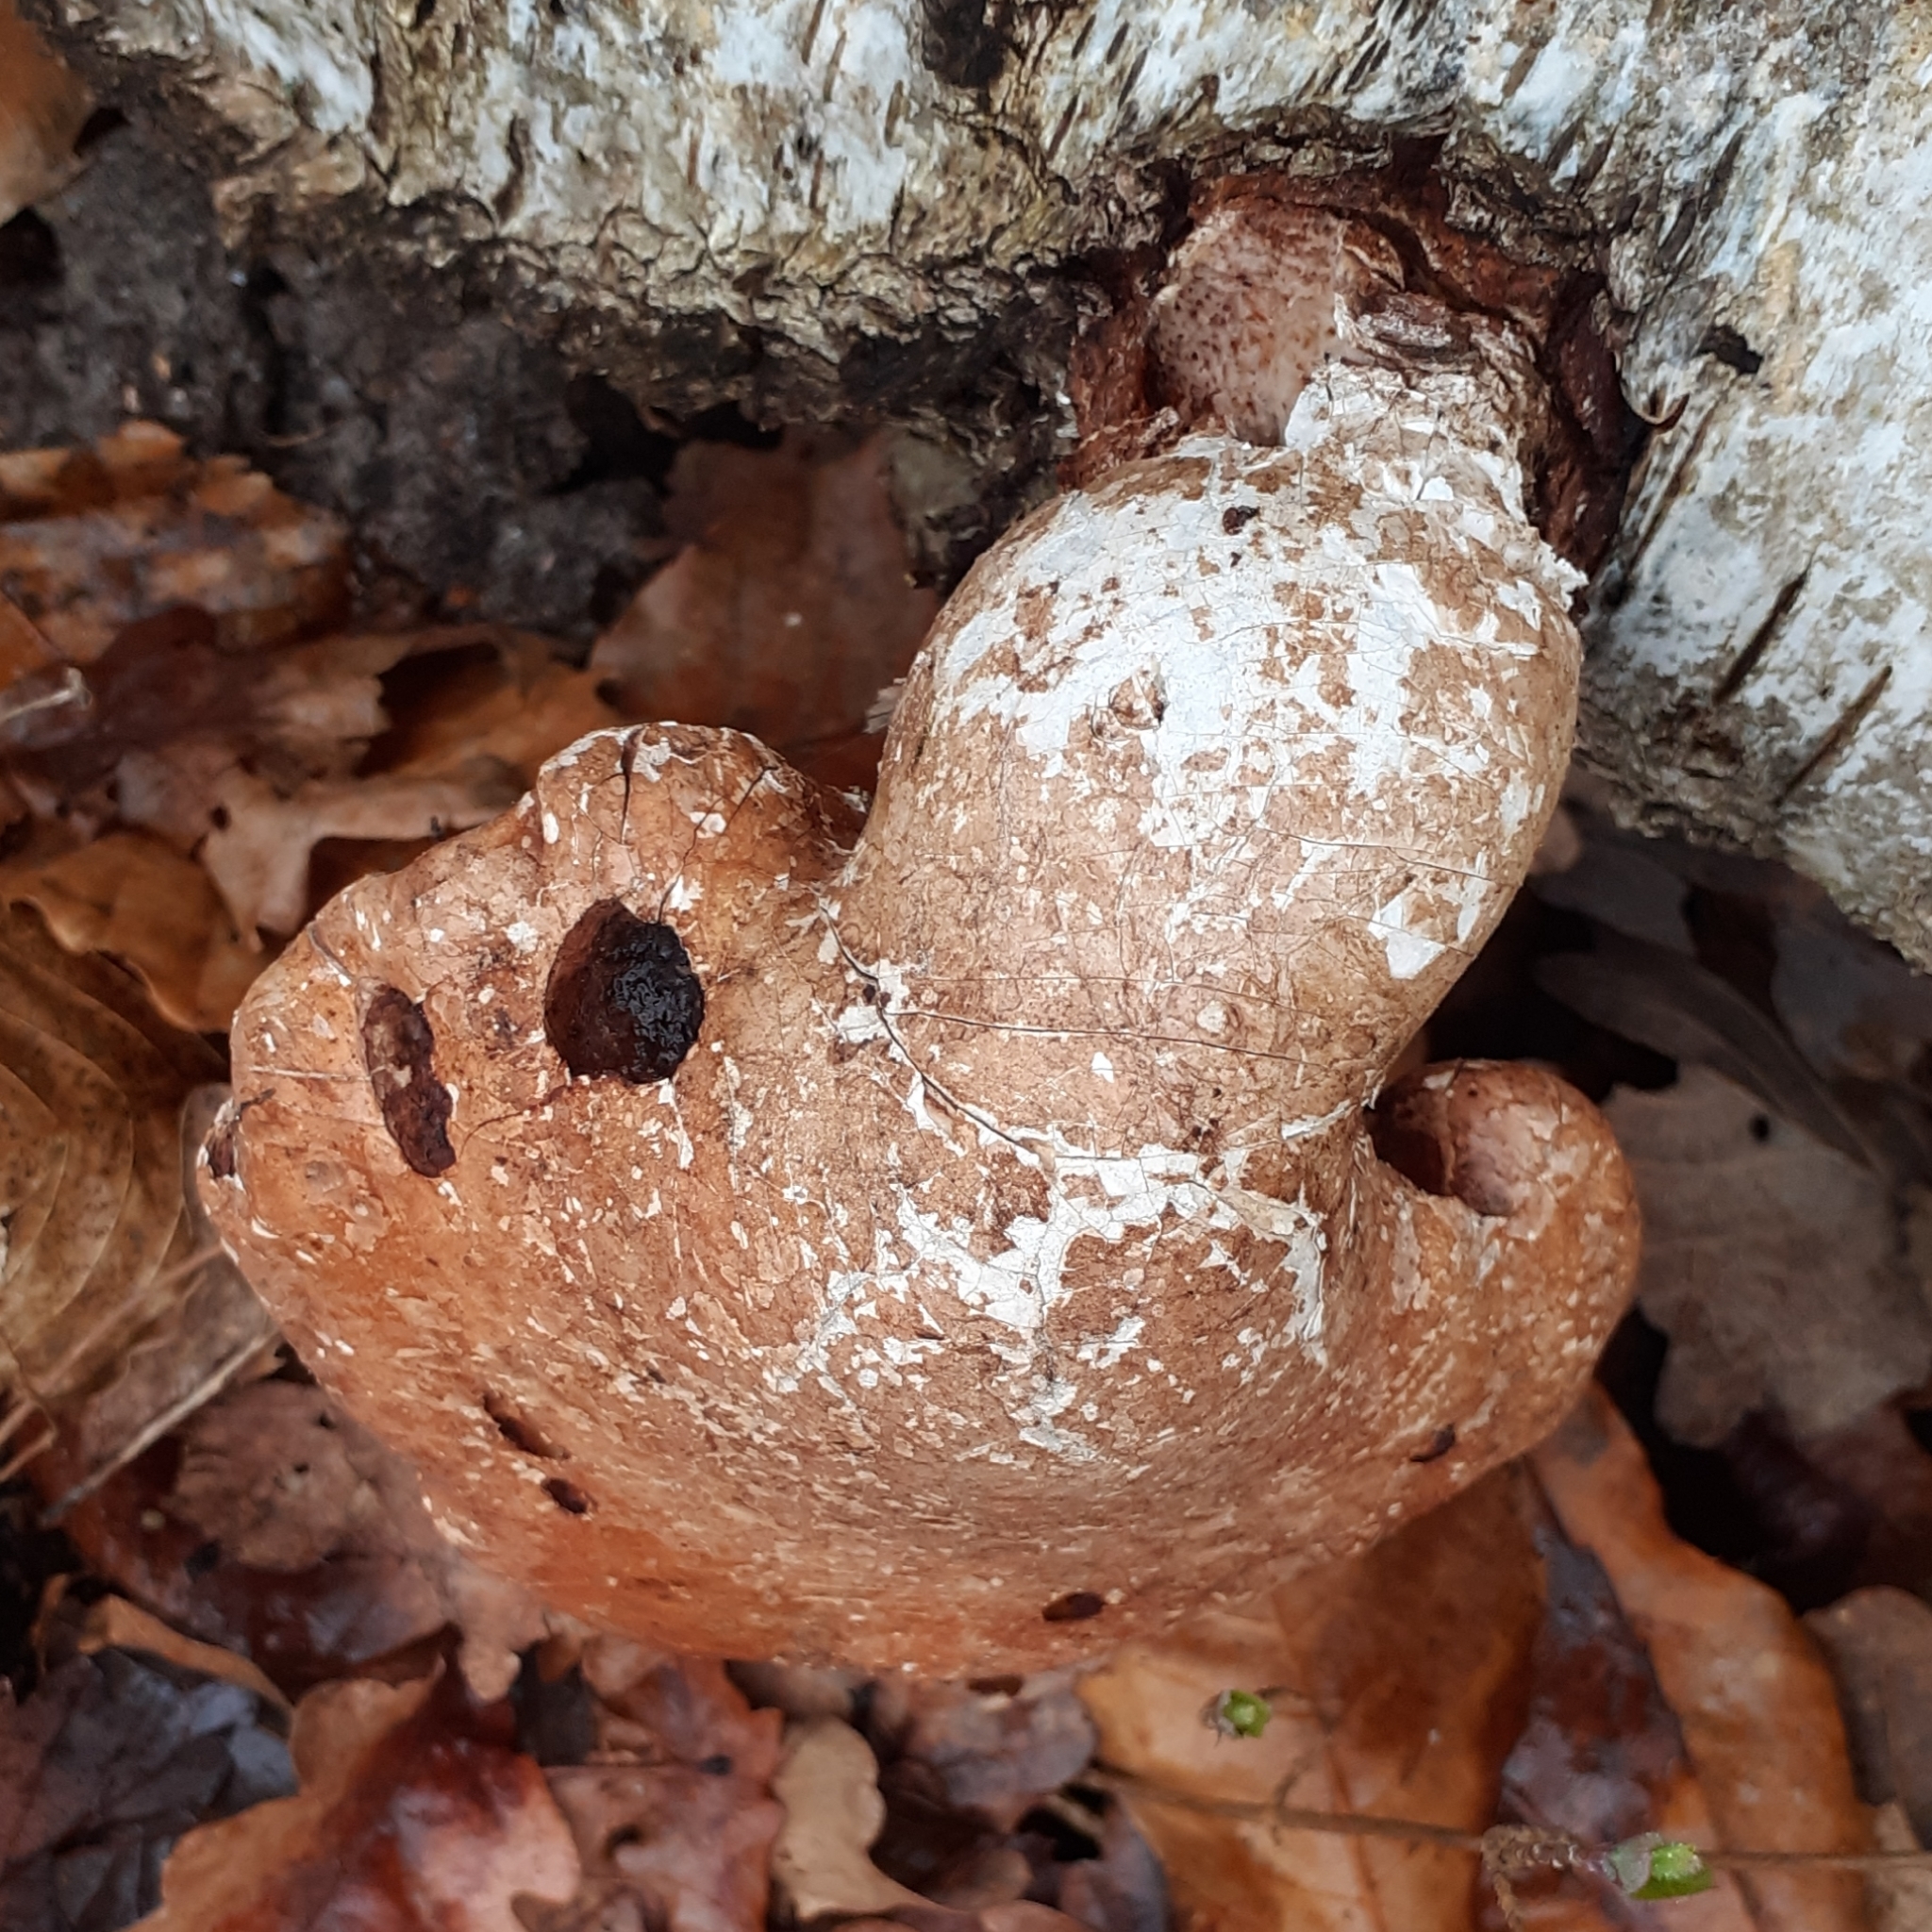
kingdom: Fungi
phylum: Basidiomycota
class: Agaricomycetes
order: Polyporales
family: Fomitopsidaceae
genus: Fomitopsis
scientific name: Fomitopsis betulina
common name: Birch polypore
